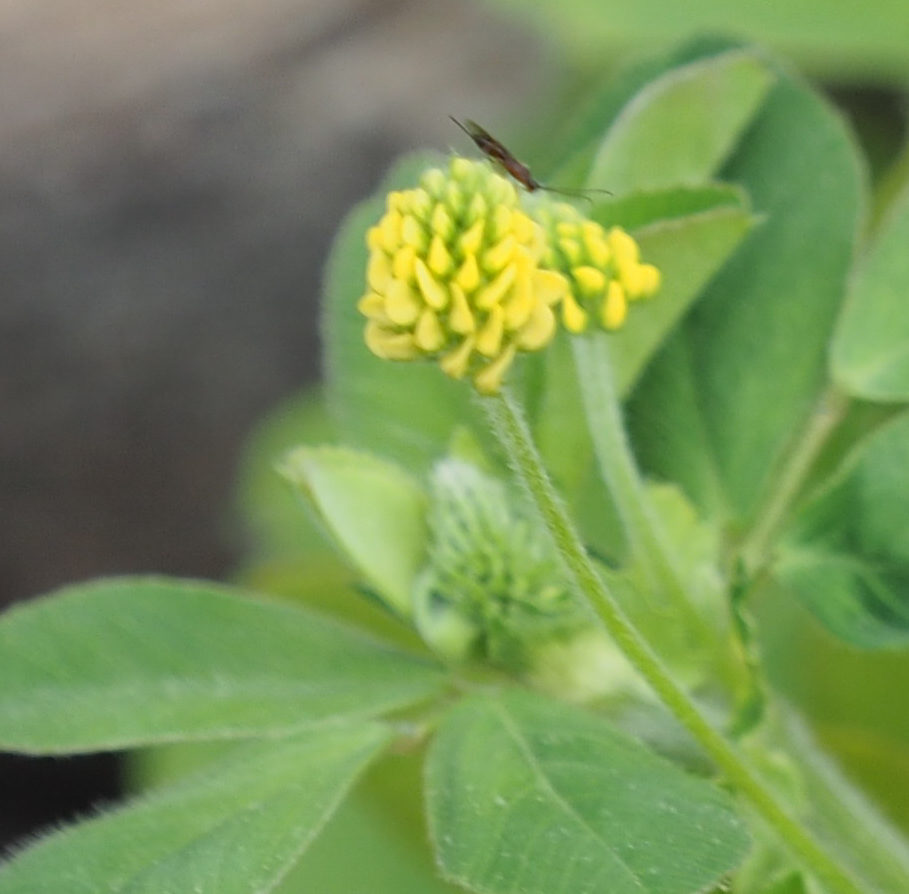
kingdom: Plantae
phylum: Tracheophyta
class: Magnoliopsida
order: Fabales
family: Fabaceae
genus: Medicago
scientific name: Medicago lupulina
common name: Black medick
